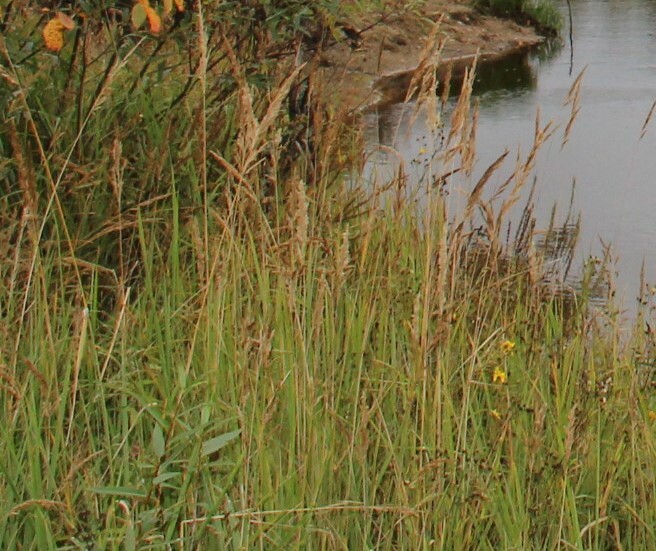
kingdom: Plantae
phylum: Tracheophyta
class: Liliopsida
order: Poales
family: Poaceae
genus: Calamagrostis
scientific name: Calamagrostis epigejos
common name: Wood small-reed
